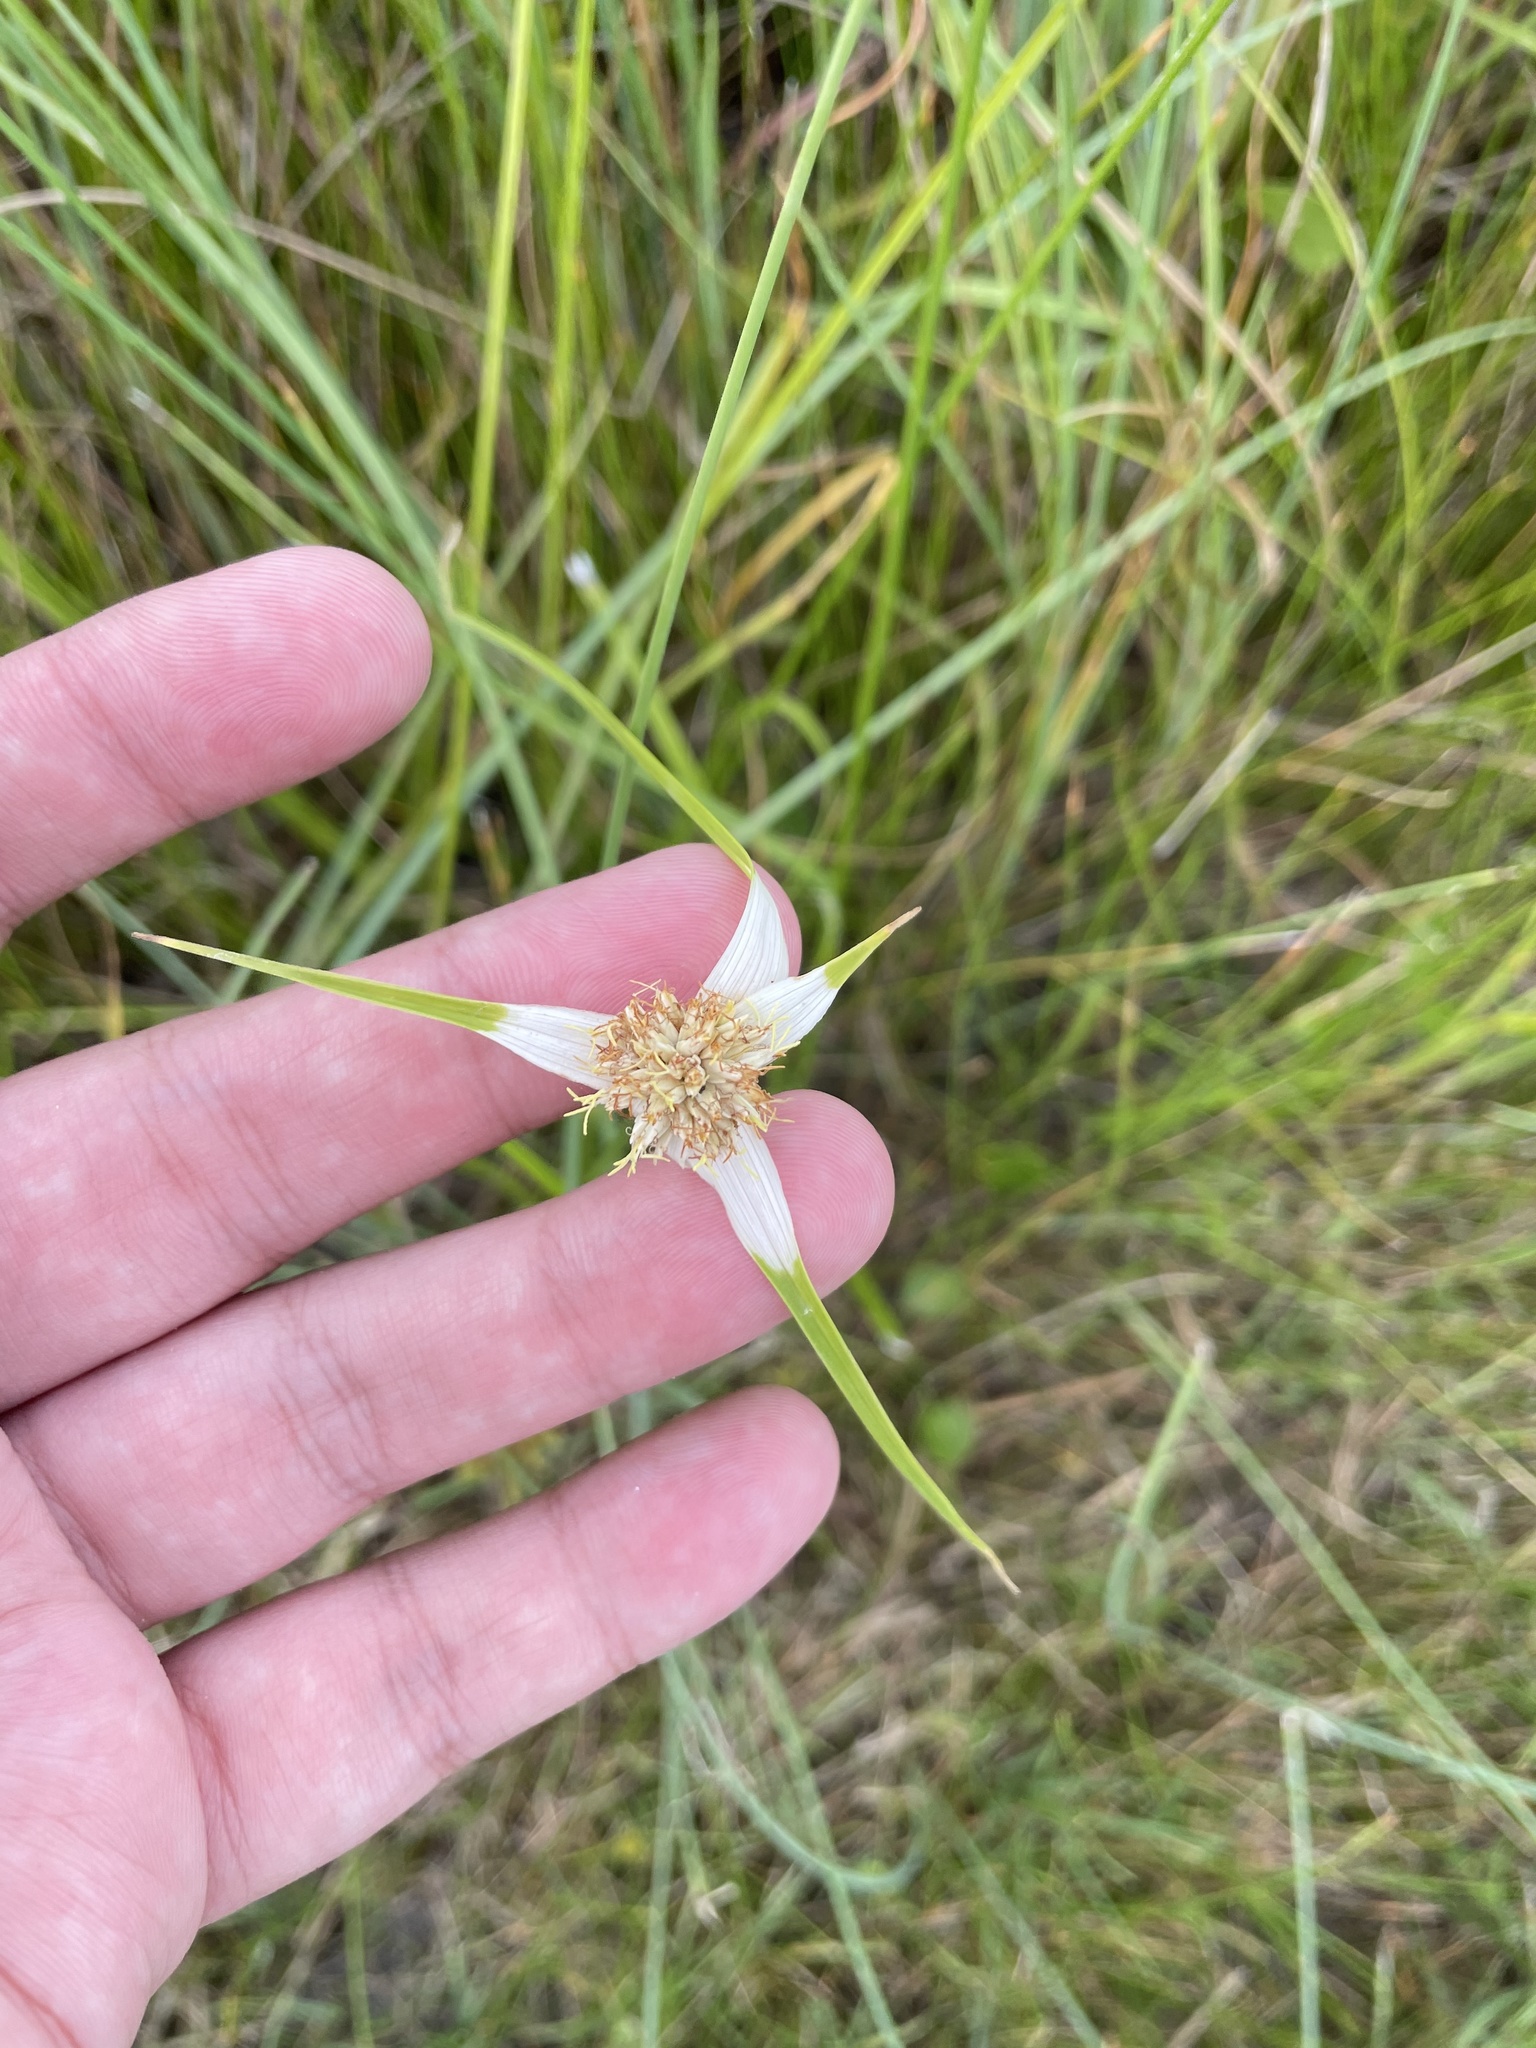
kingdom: Plantae
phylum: Tracheophyta
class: Liliopsida
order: Poales
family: Cyperaceae
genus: Rhynchospora
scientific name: Rhynchospora colorata
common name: Star sedge
